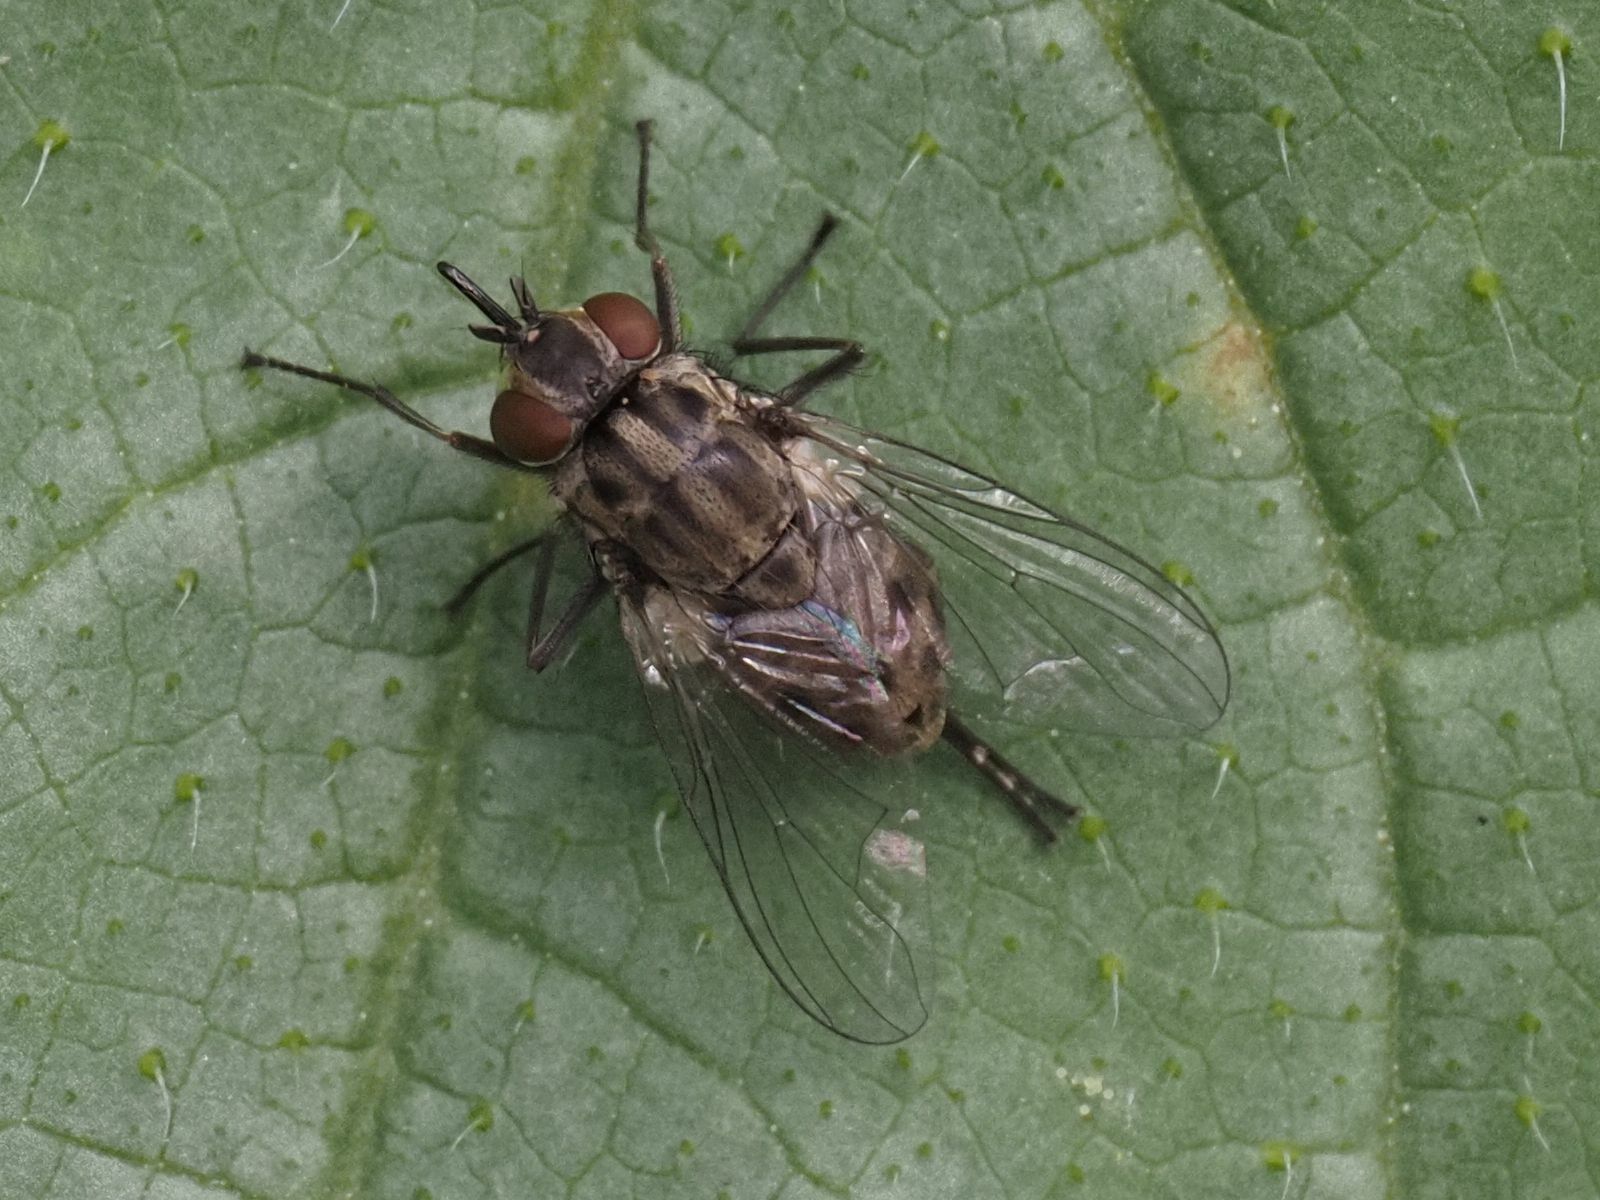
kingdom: Animalia
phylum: Arthropoda
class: Insecta
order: Diptera
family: Muscidae
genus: Stomoxys
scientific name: Stomoxys calcitrans
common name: Stable fly
